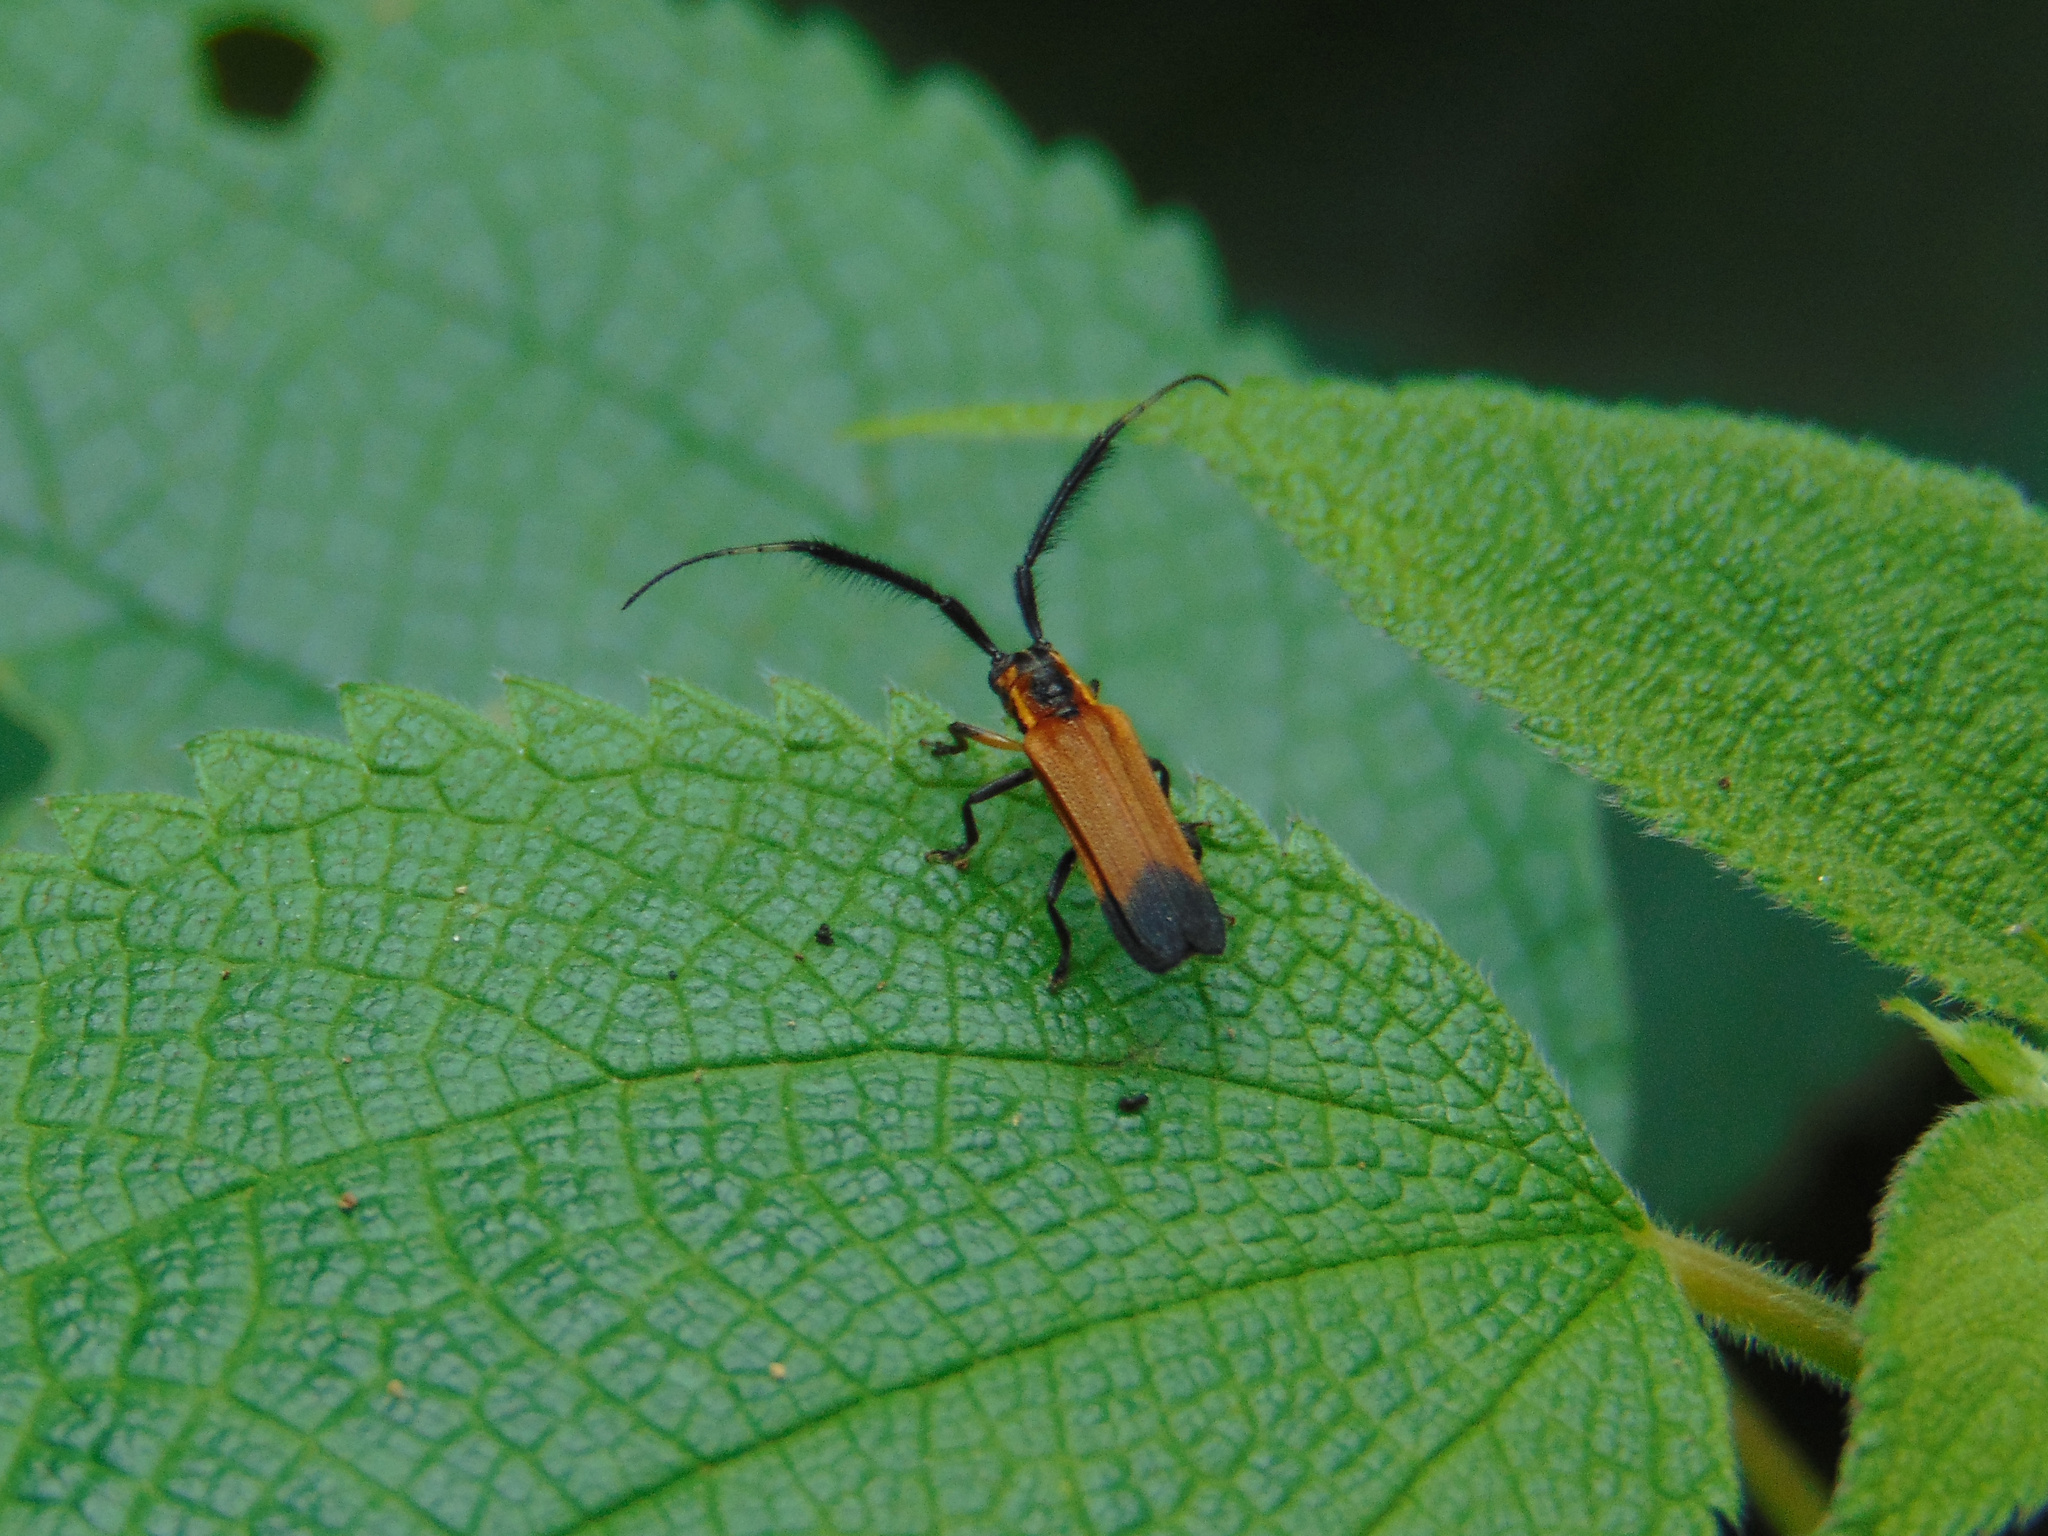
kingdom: Animalia
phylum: Arthropoda
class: Insecta
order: Coleoptera
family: Cerambycidae
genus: Malacoscylus
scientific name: Malacoscylus gonostigma
